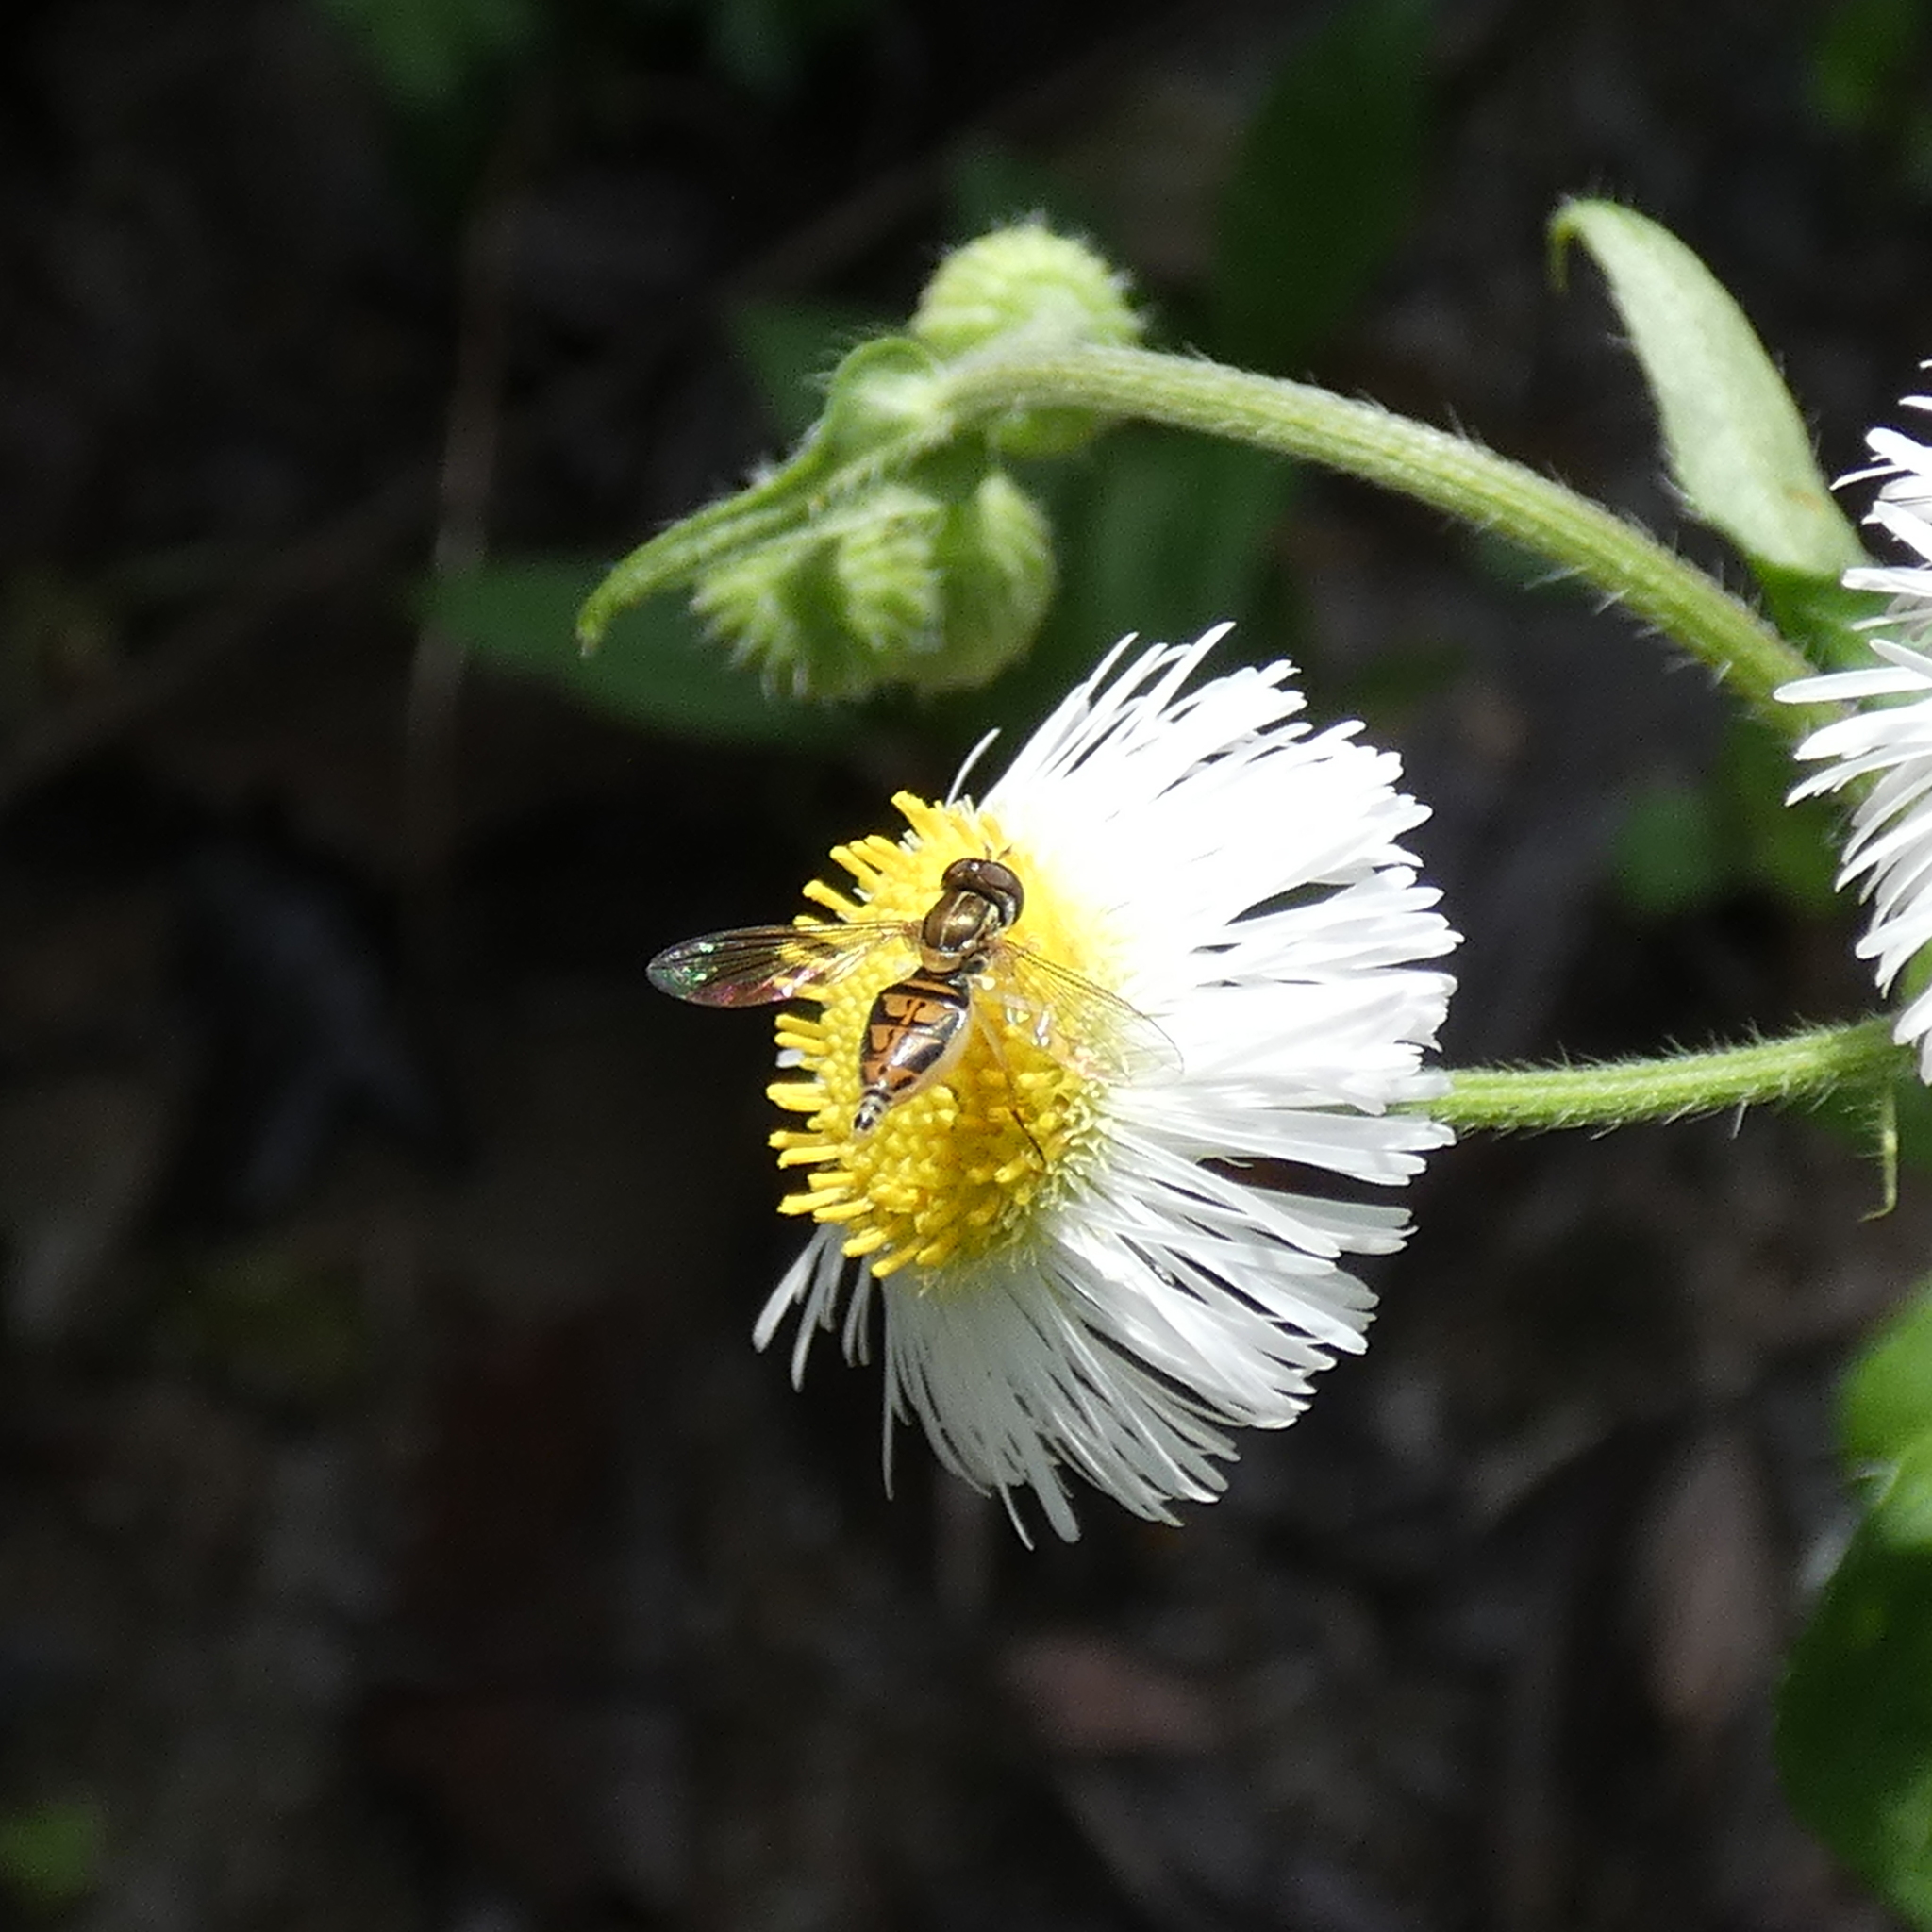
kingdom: Animalia
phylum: Arthropoda
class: Insecta
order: Diptera
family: Syrphidae
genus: Toxomerus
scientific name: Toxomerus marginatus
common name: Syrphid fly
